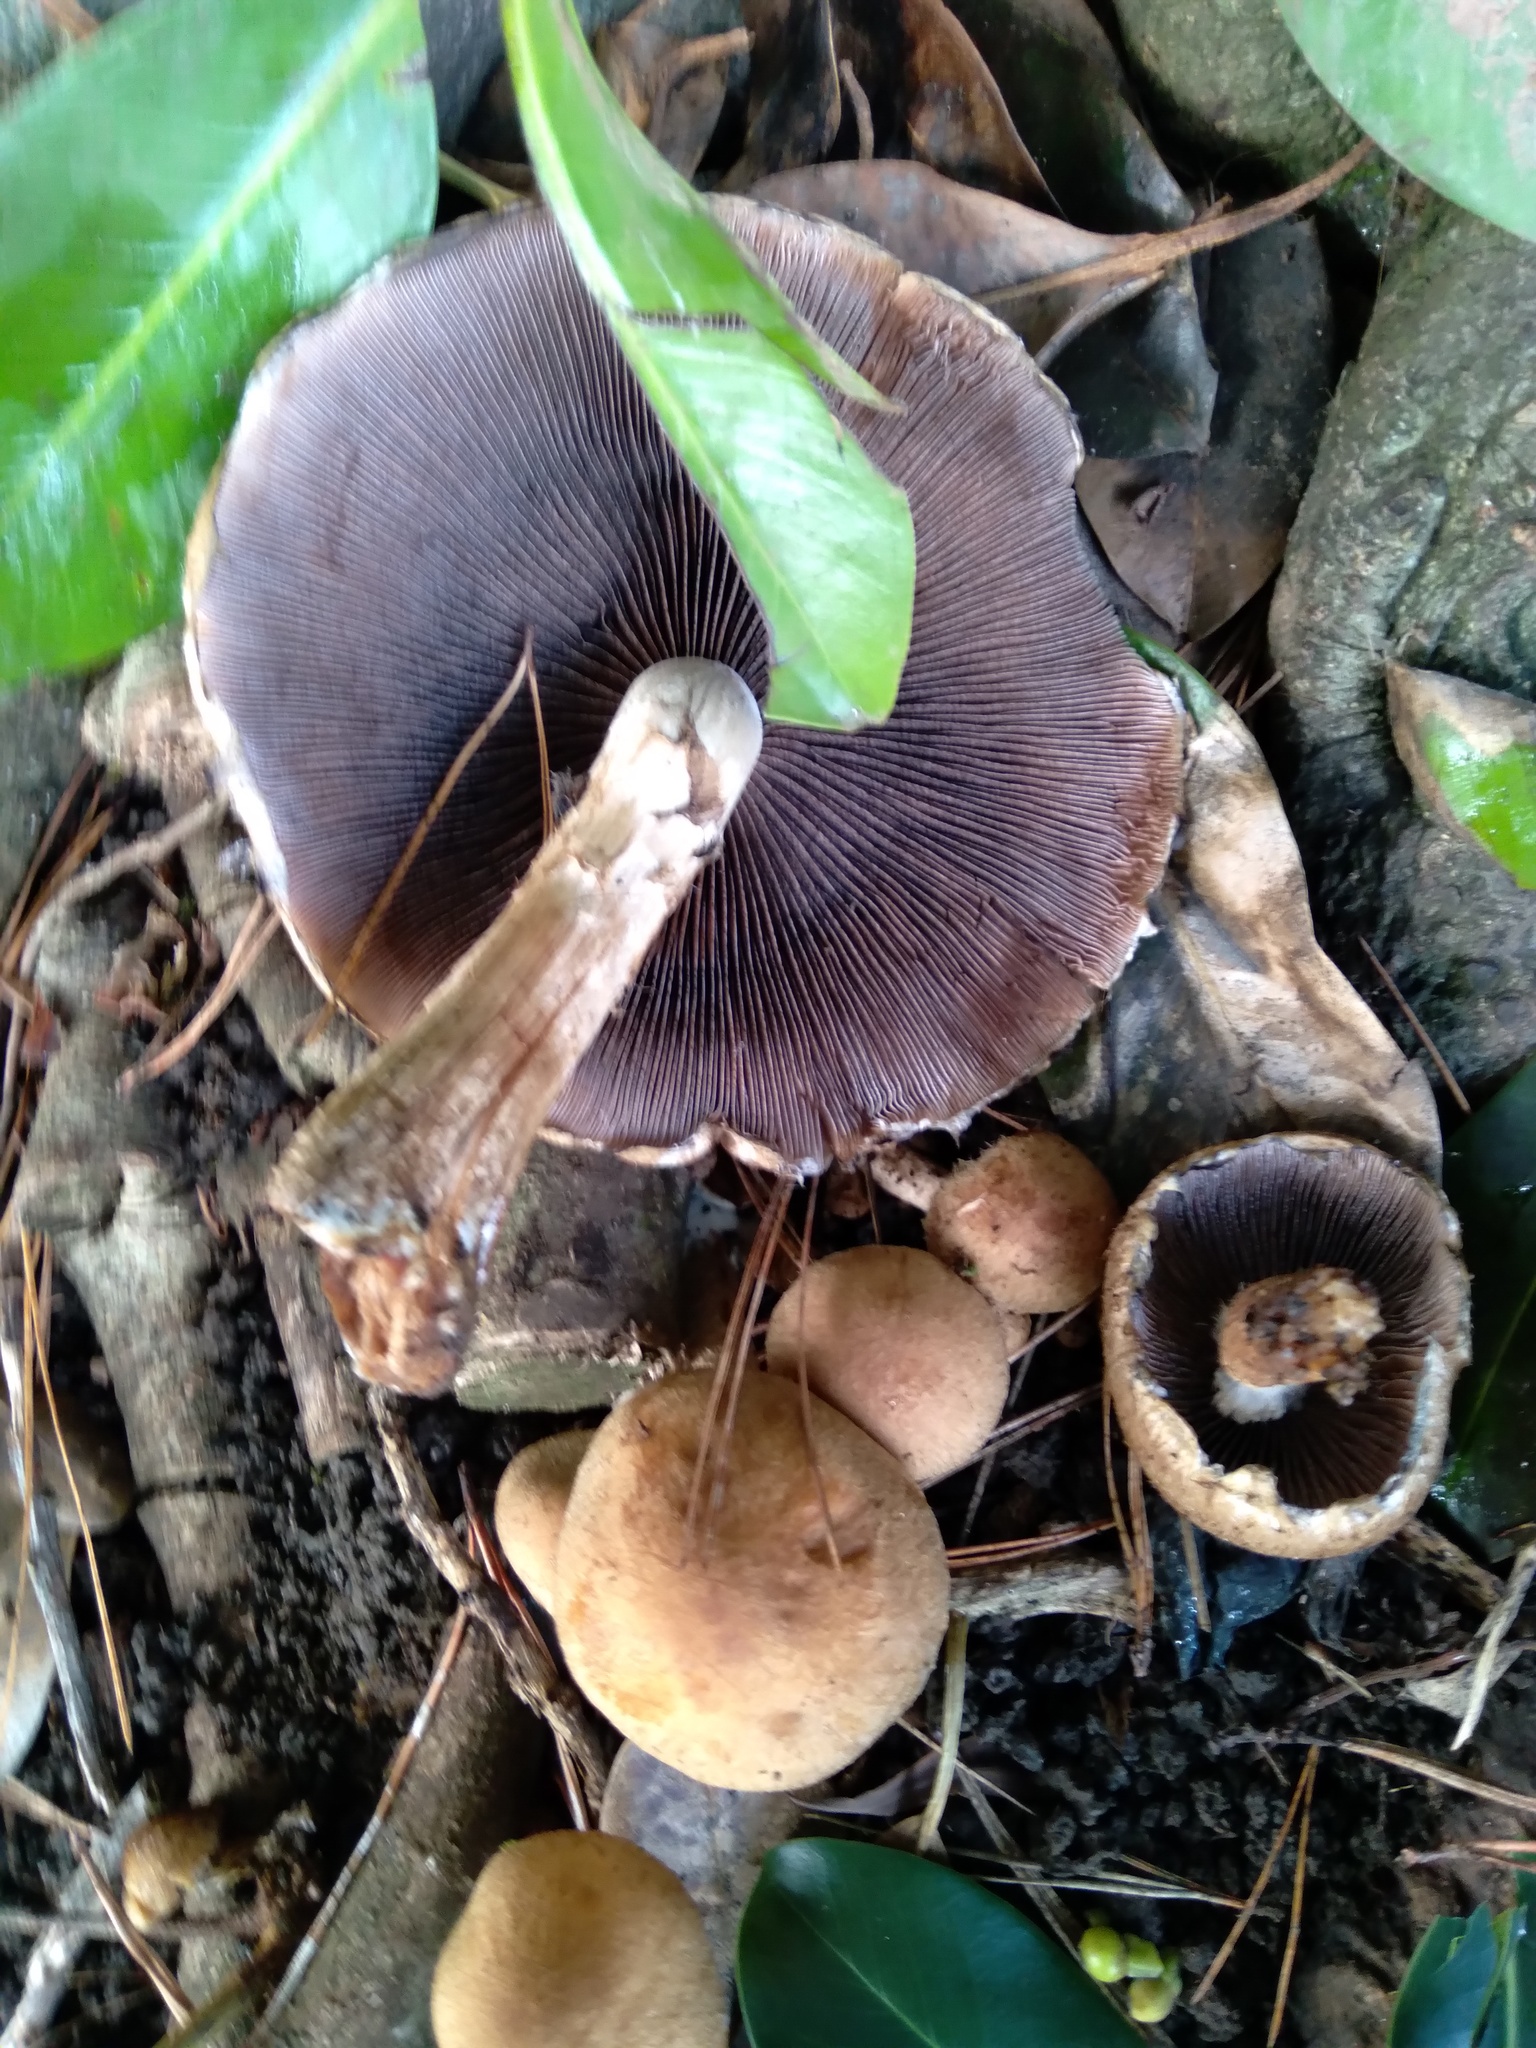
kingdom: Fungi
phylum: Basidiomycota
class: Agaricomycetes
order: Agaricales
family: Psathyrellaceae
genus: Lacrymaria
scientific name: Lacrymaria lacrymabunda
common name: Weeping widow
